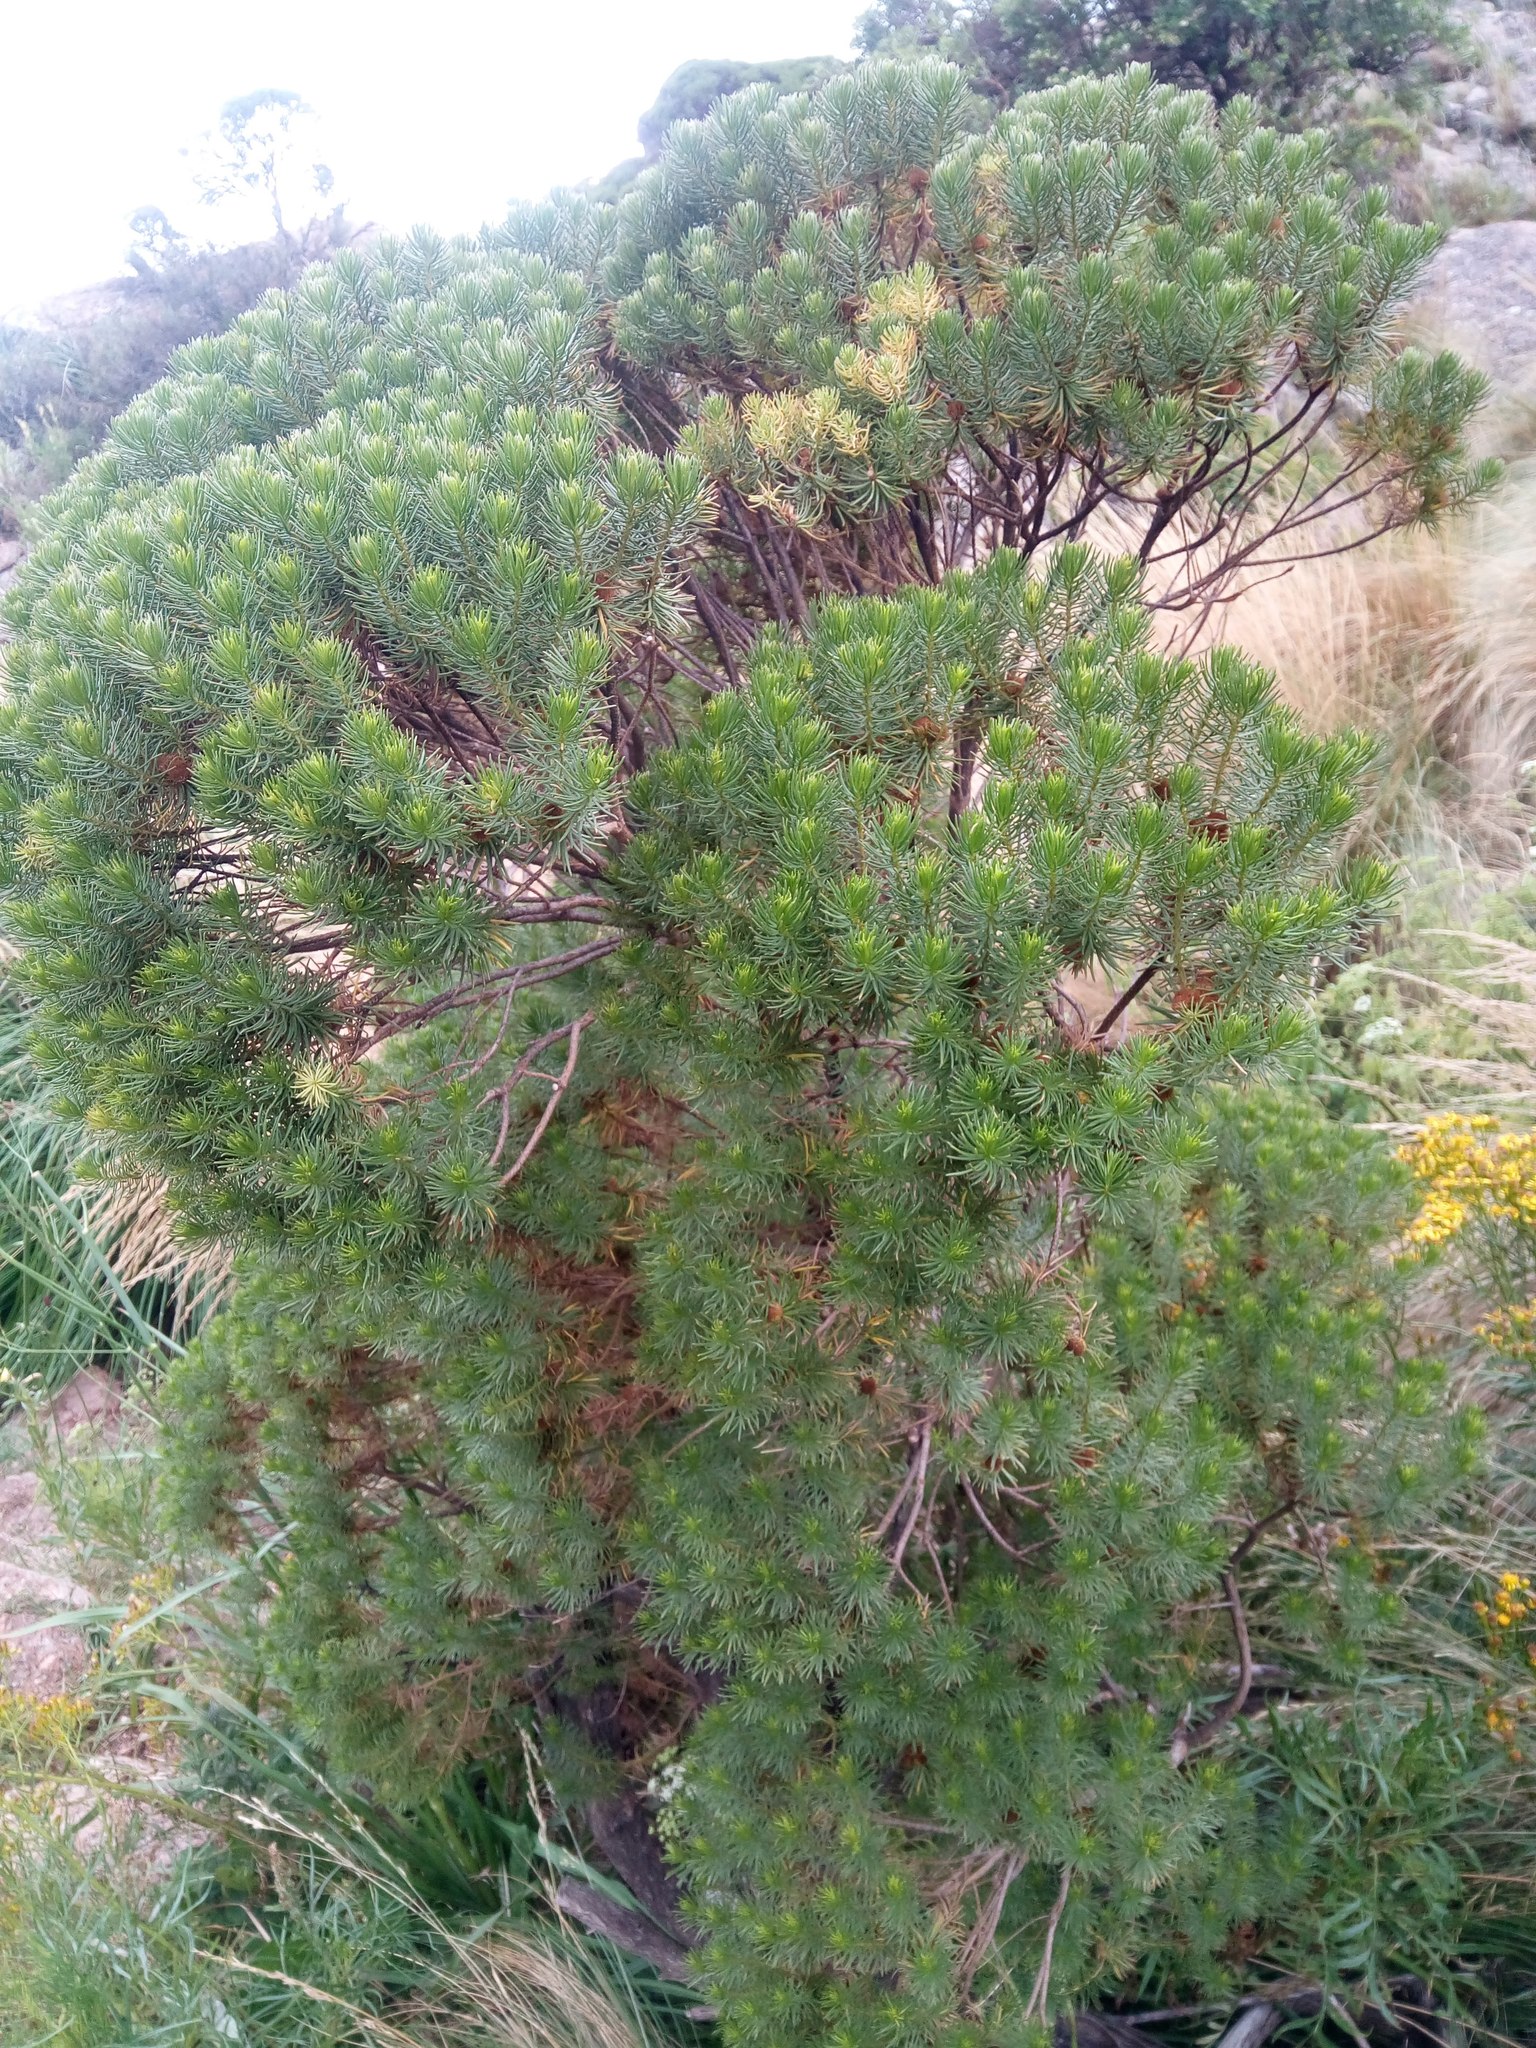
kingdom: Plantae
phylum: Tracheophyta
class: Magnoliopsida
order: Asterales
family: Asteraceae
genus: Baccharis
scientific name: Baccharis aliena
